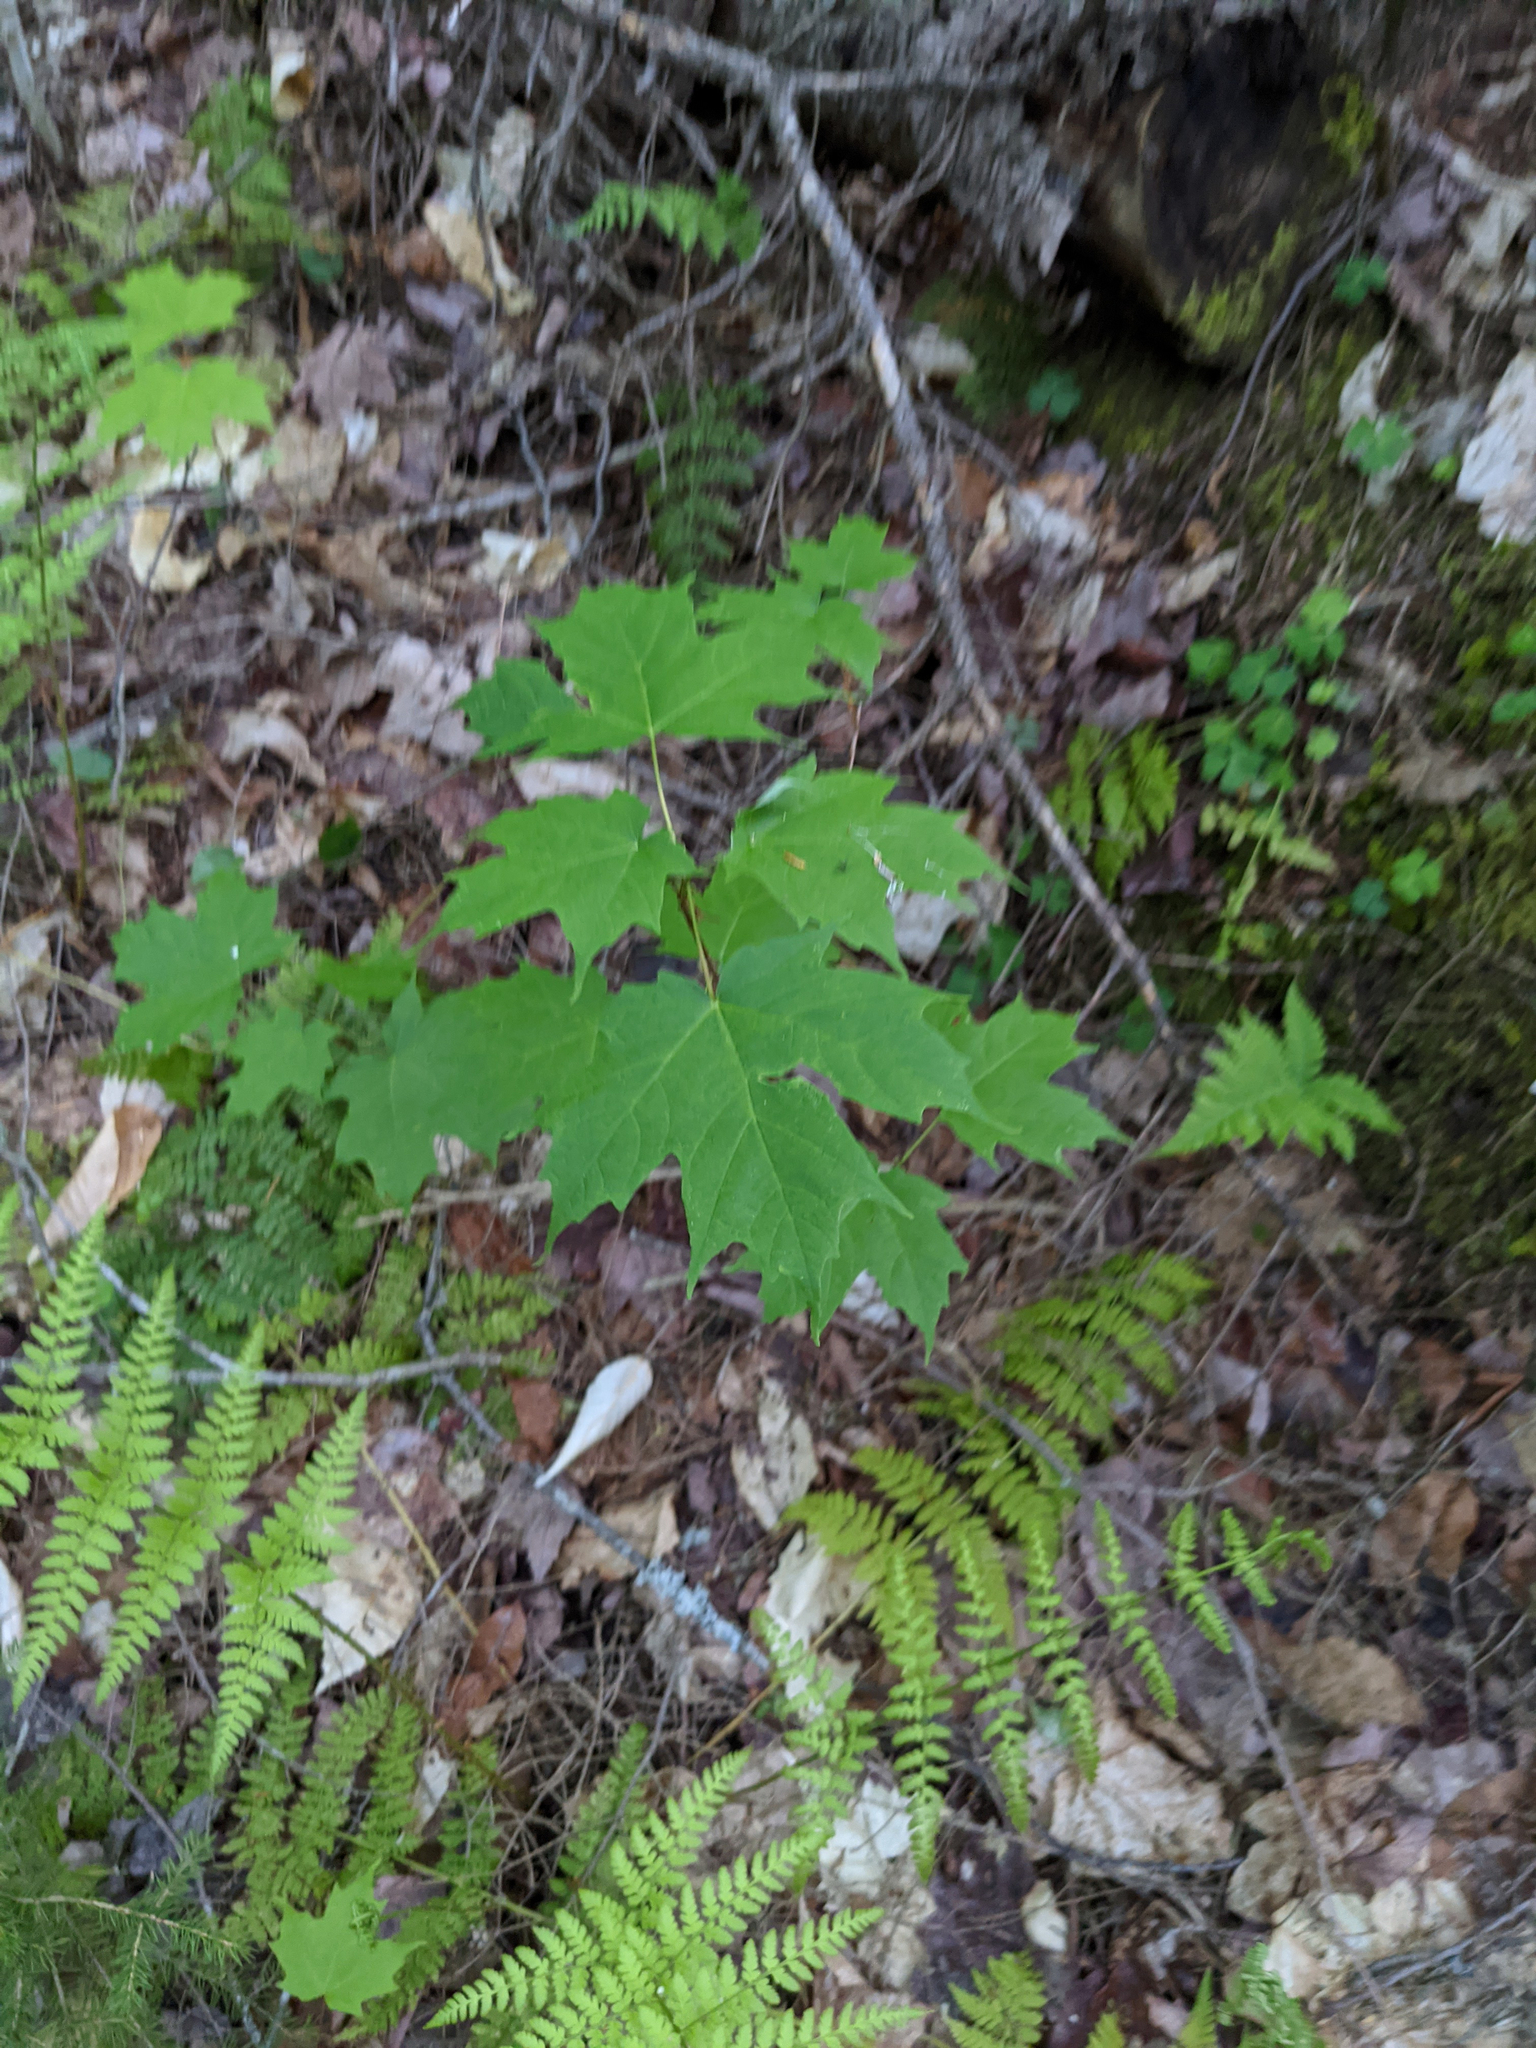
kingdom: Plantae
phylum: Tracheophyta
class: Magnoliopsida
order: Sapindales
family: Sapindaceae
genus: Acer
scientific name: Acer saccharum
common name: Sugar maple
